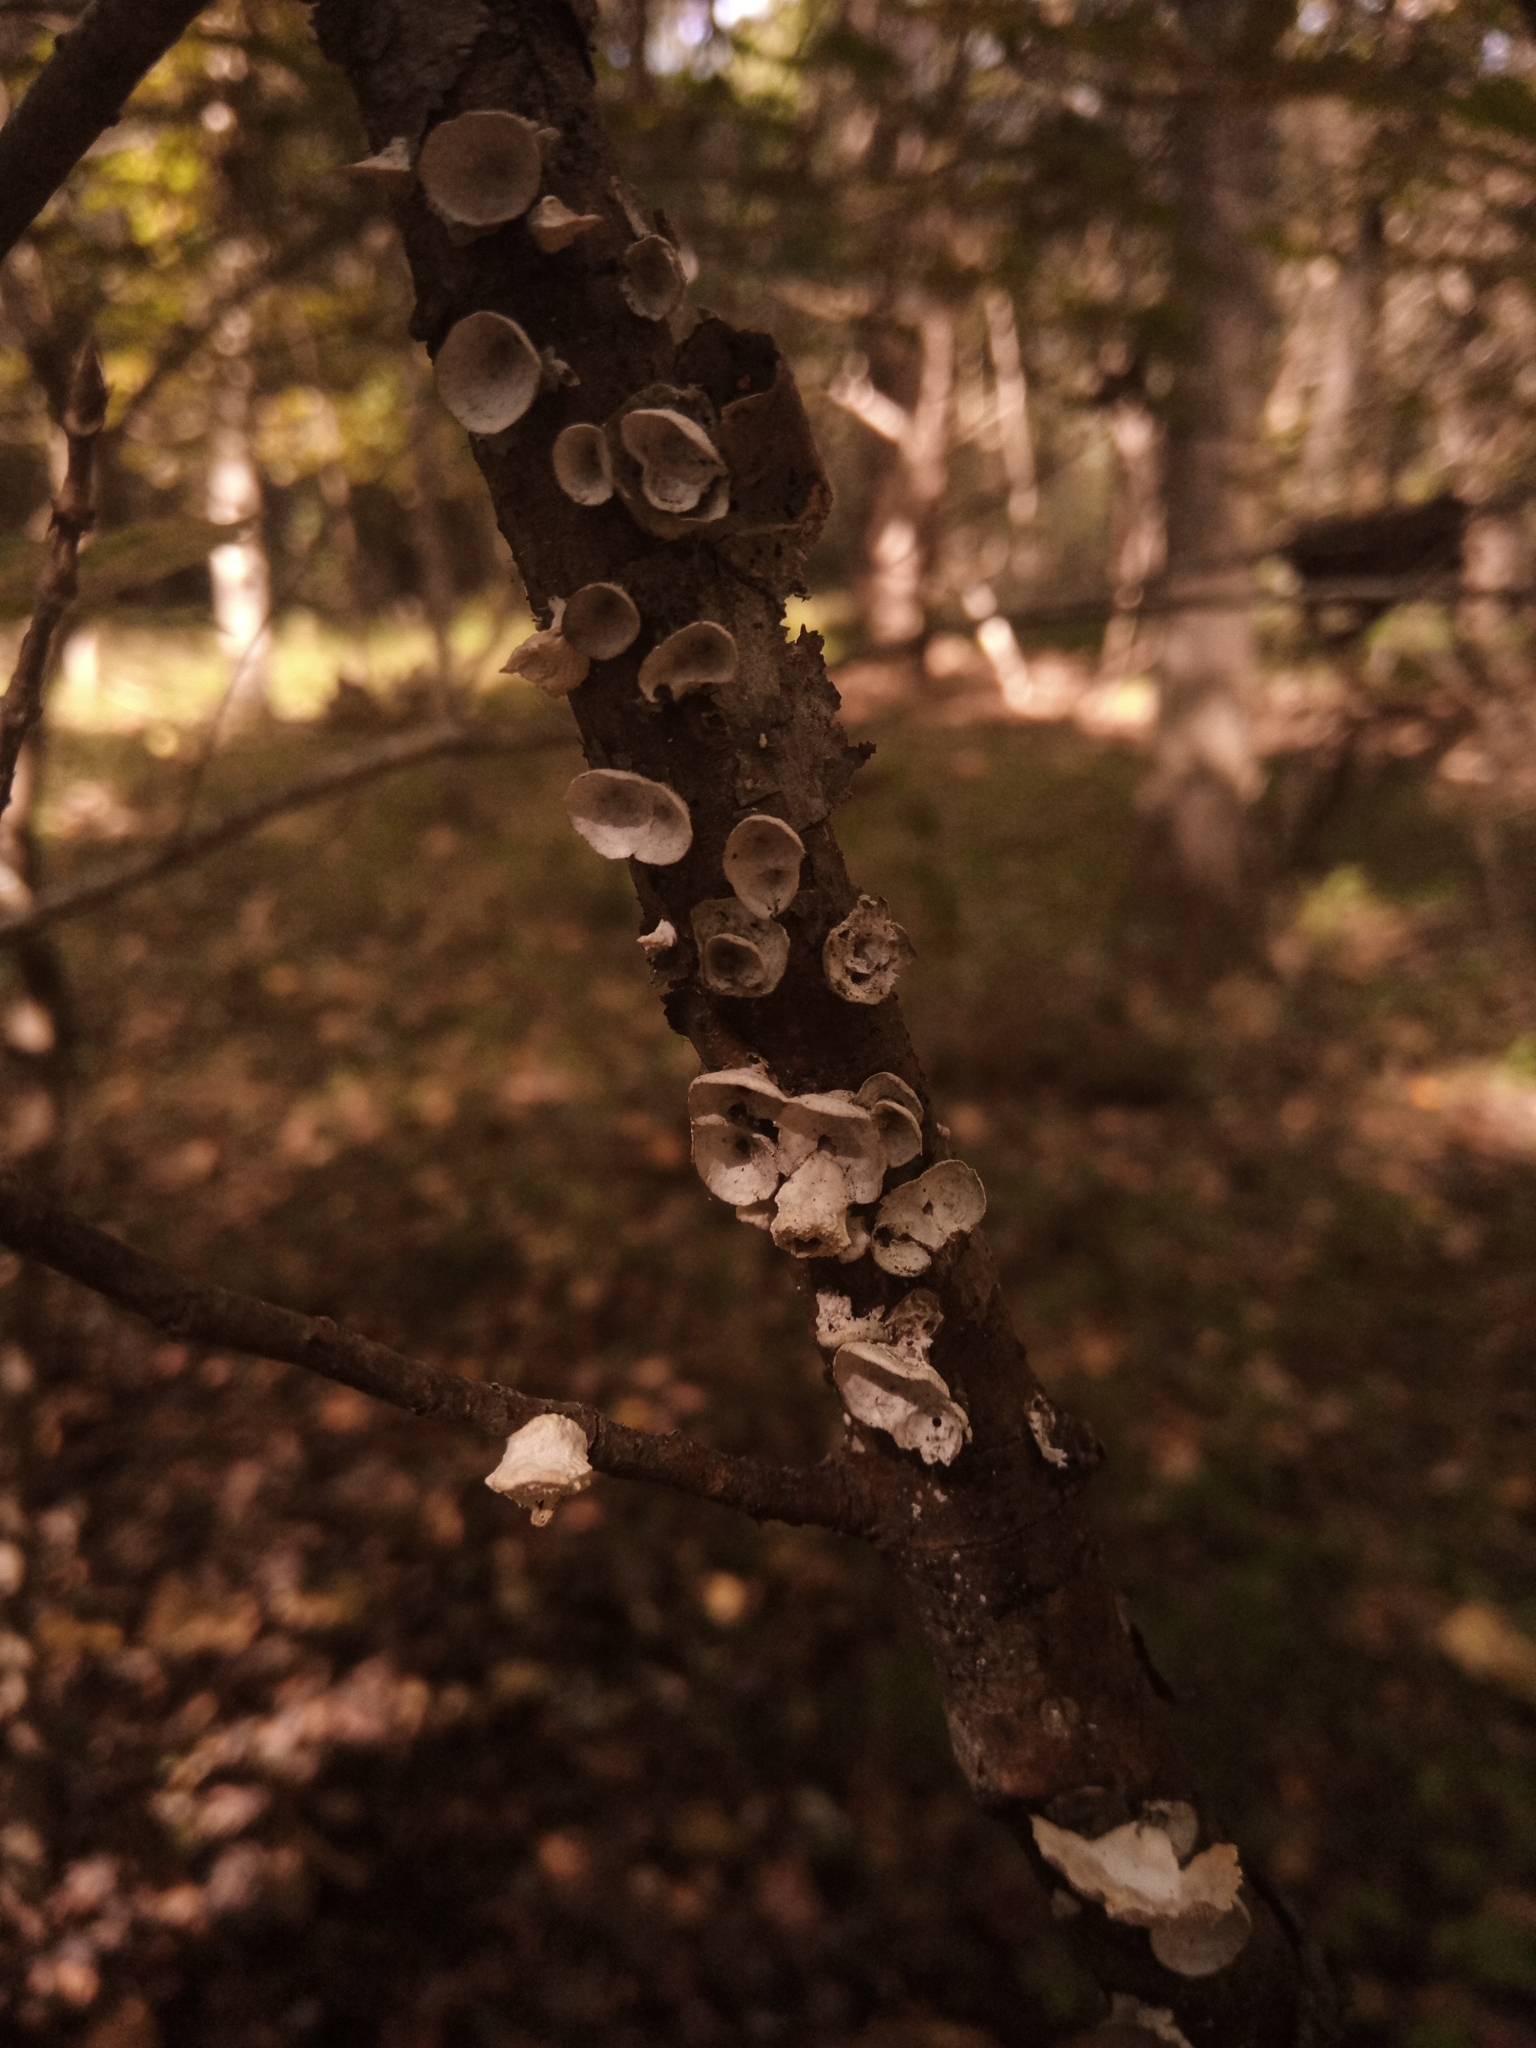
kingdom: Fungi
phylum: Basidiomycota
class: Agaricomycetes
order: Polyporales
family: Polyporaceae
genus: Poronidulus
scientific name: Poronidulus conchifer
